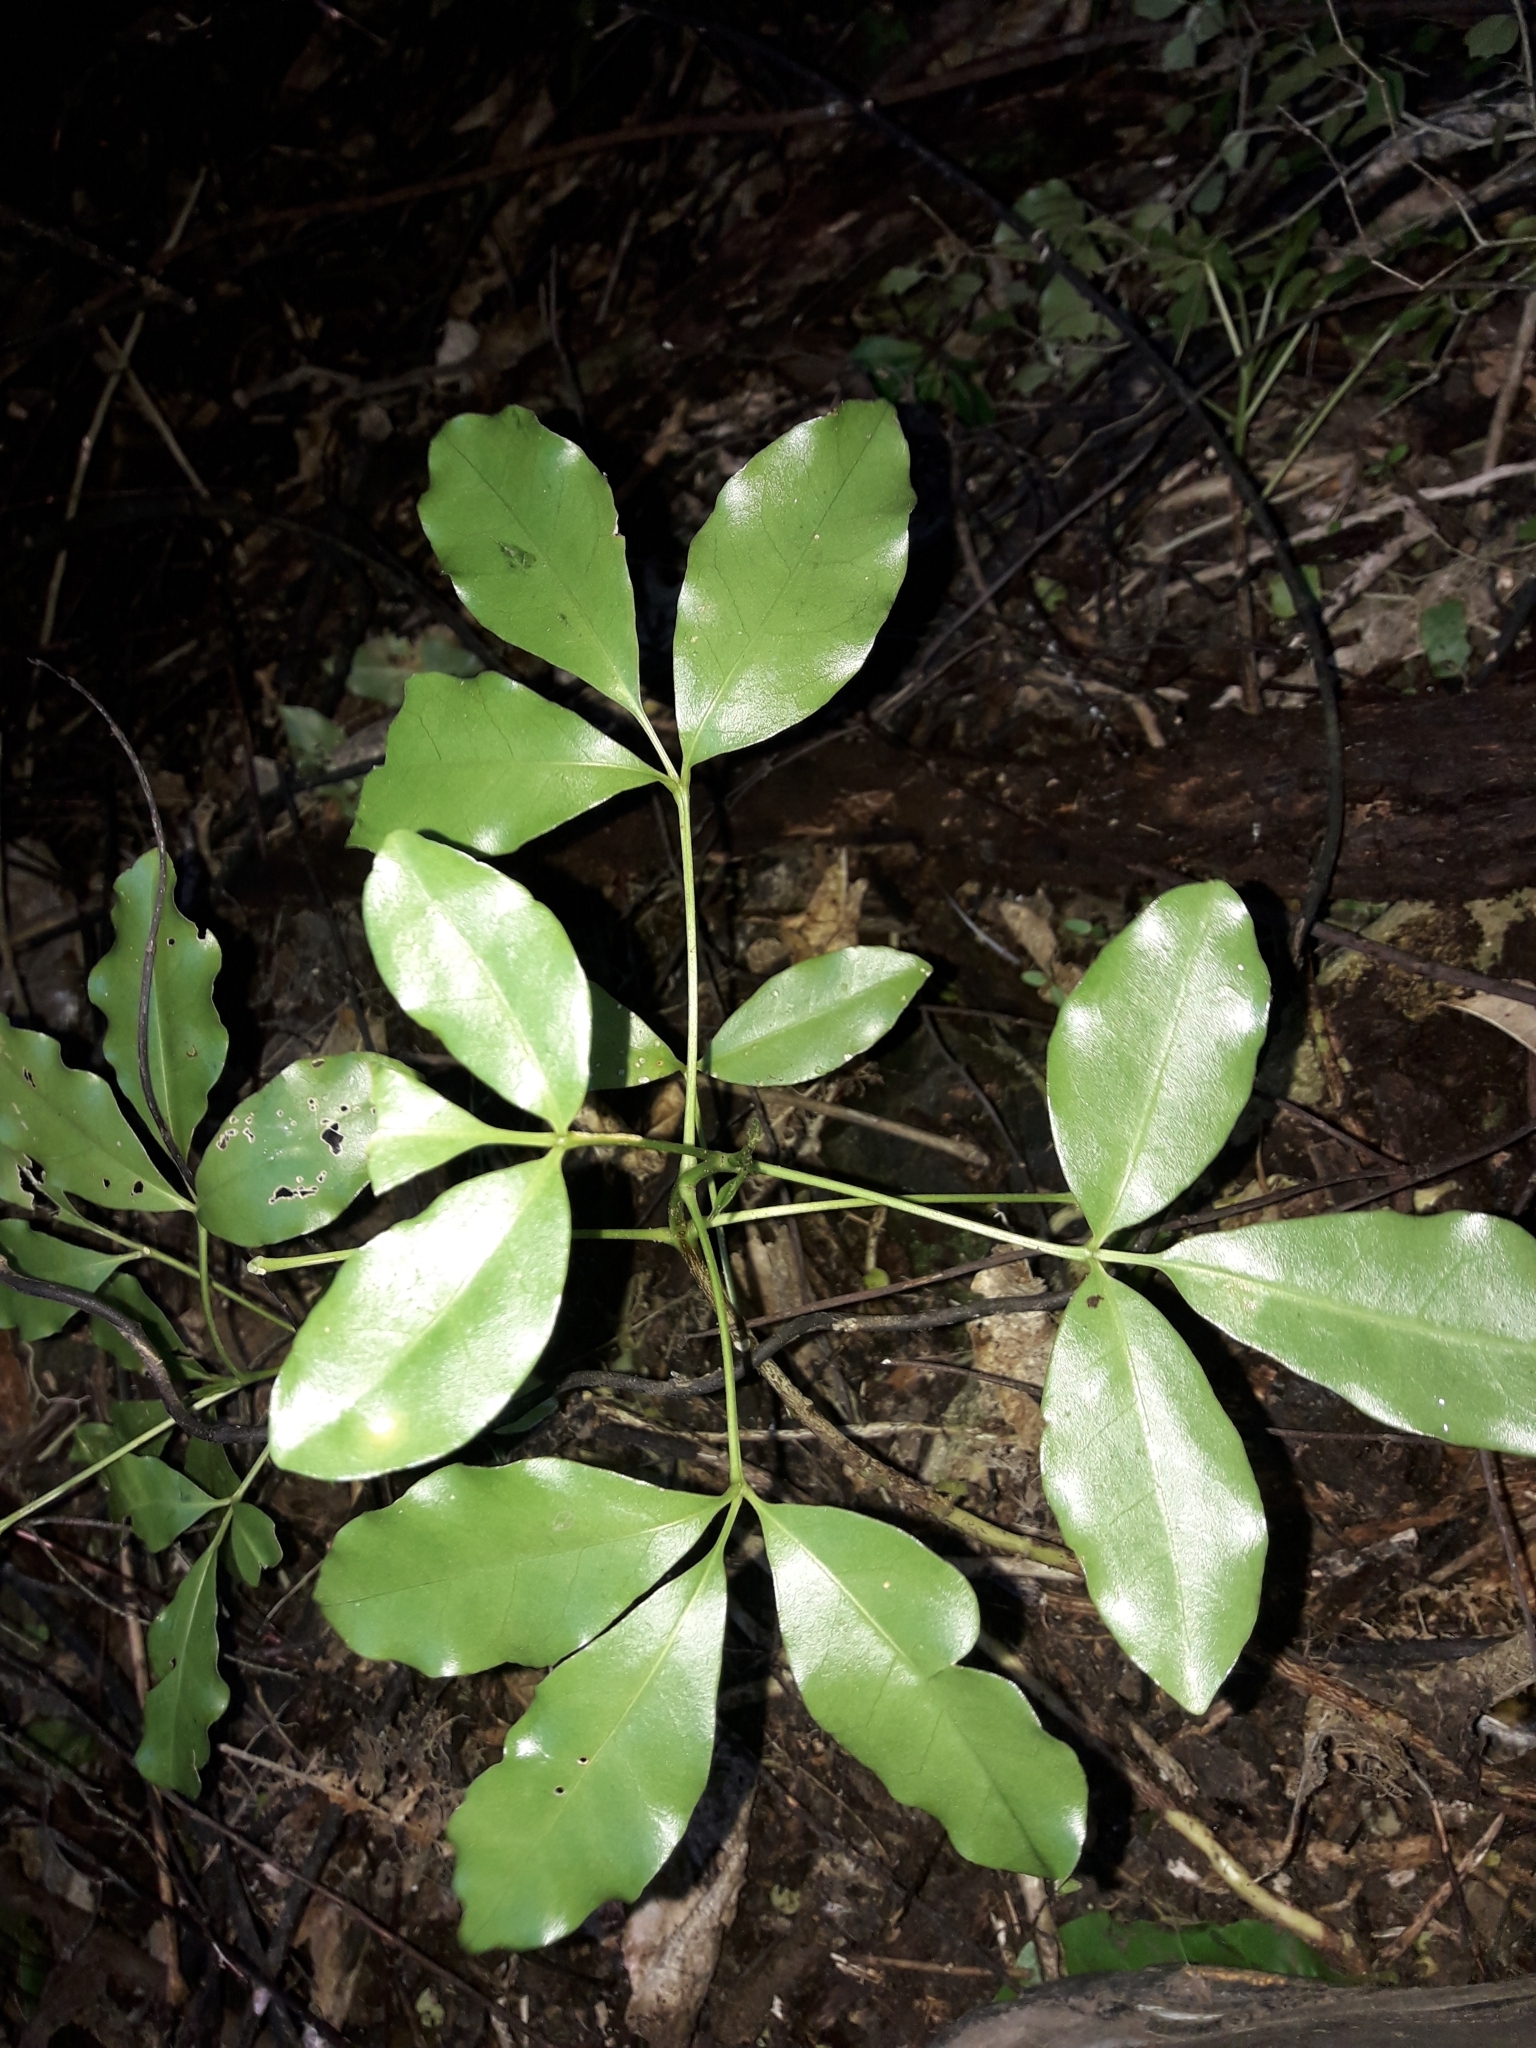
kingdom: Plantae
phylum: Tracheophyta
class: Magnoliopsida
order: Sapindales
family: Rutaceae
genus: Melicope
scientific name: Melicope ternata
